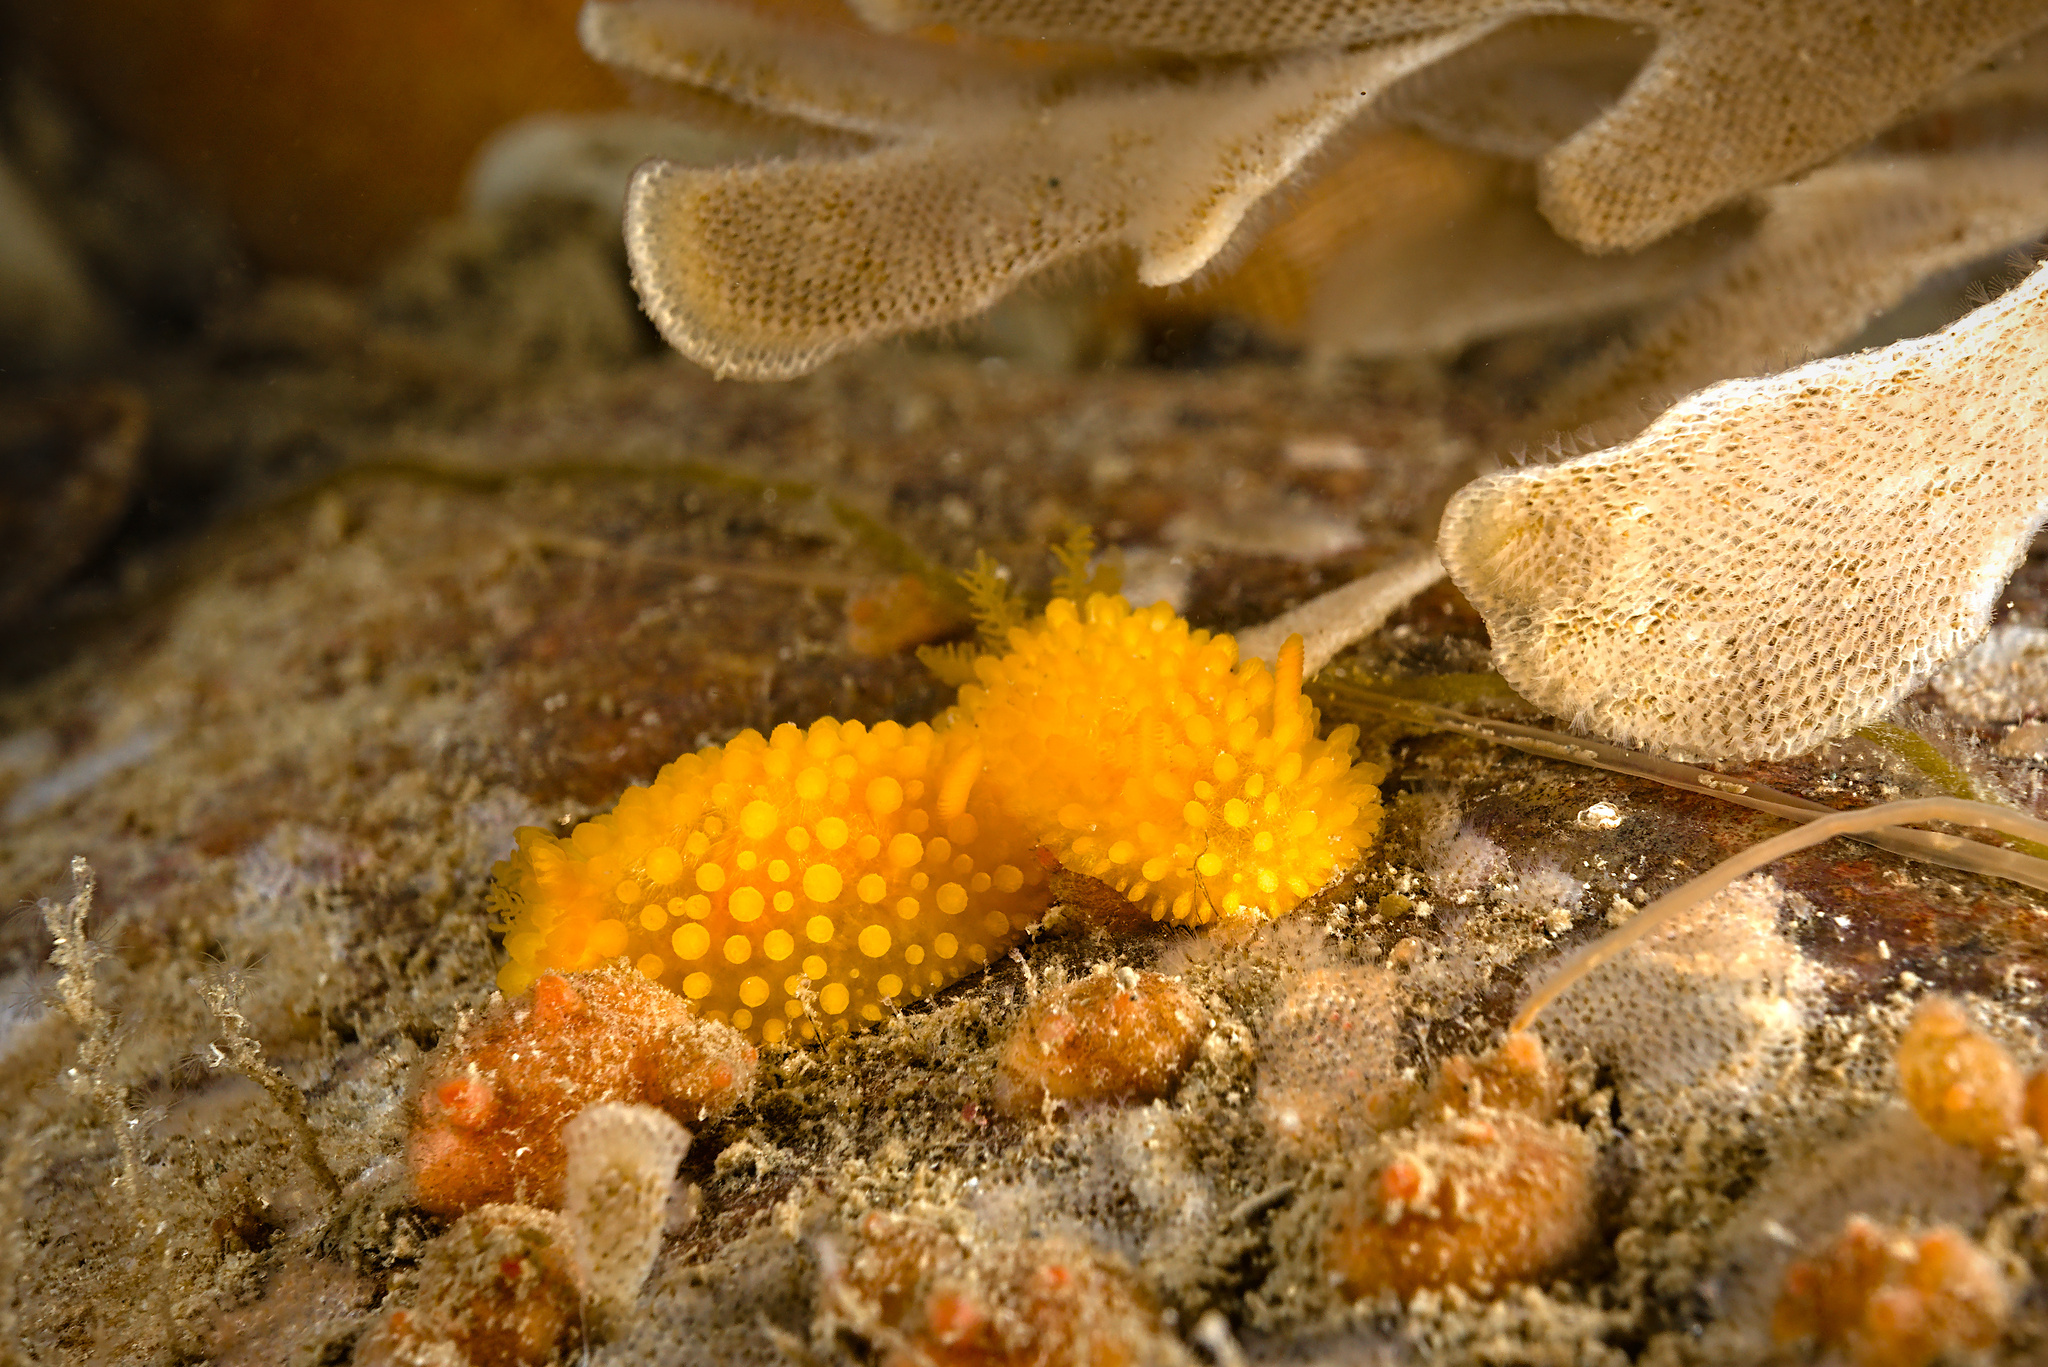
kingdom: Animalia
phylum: Mollusca
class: Gastropoda
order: Nudibranchia
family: Onchidorididae
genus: Adalaria
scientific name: Adalaria loveni
